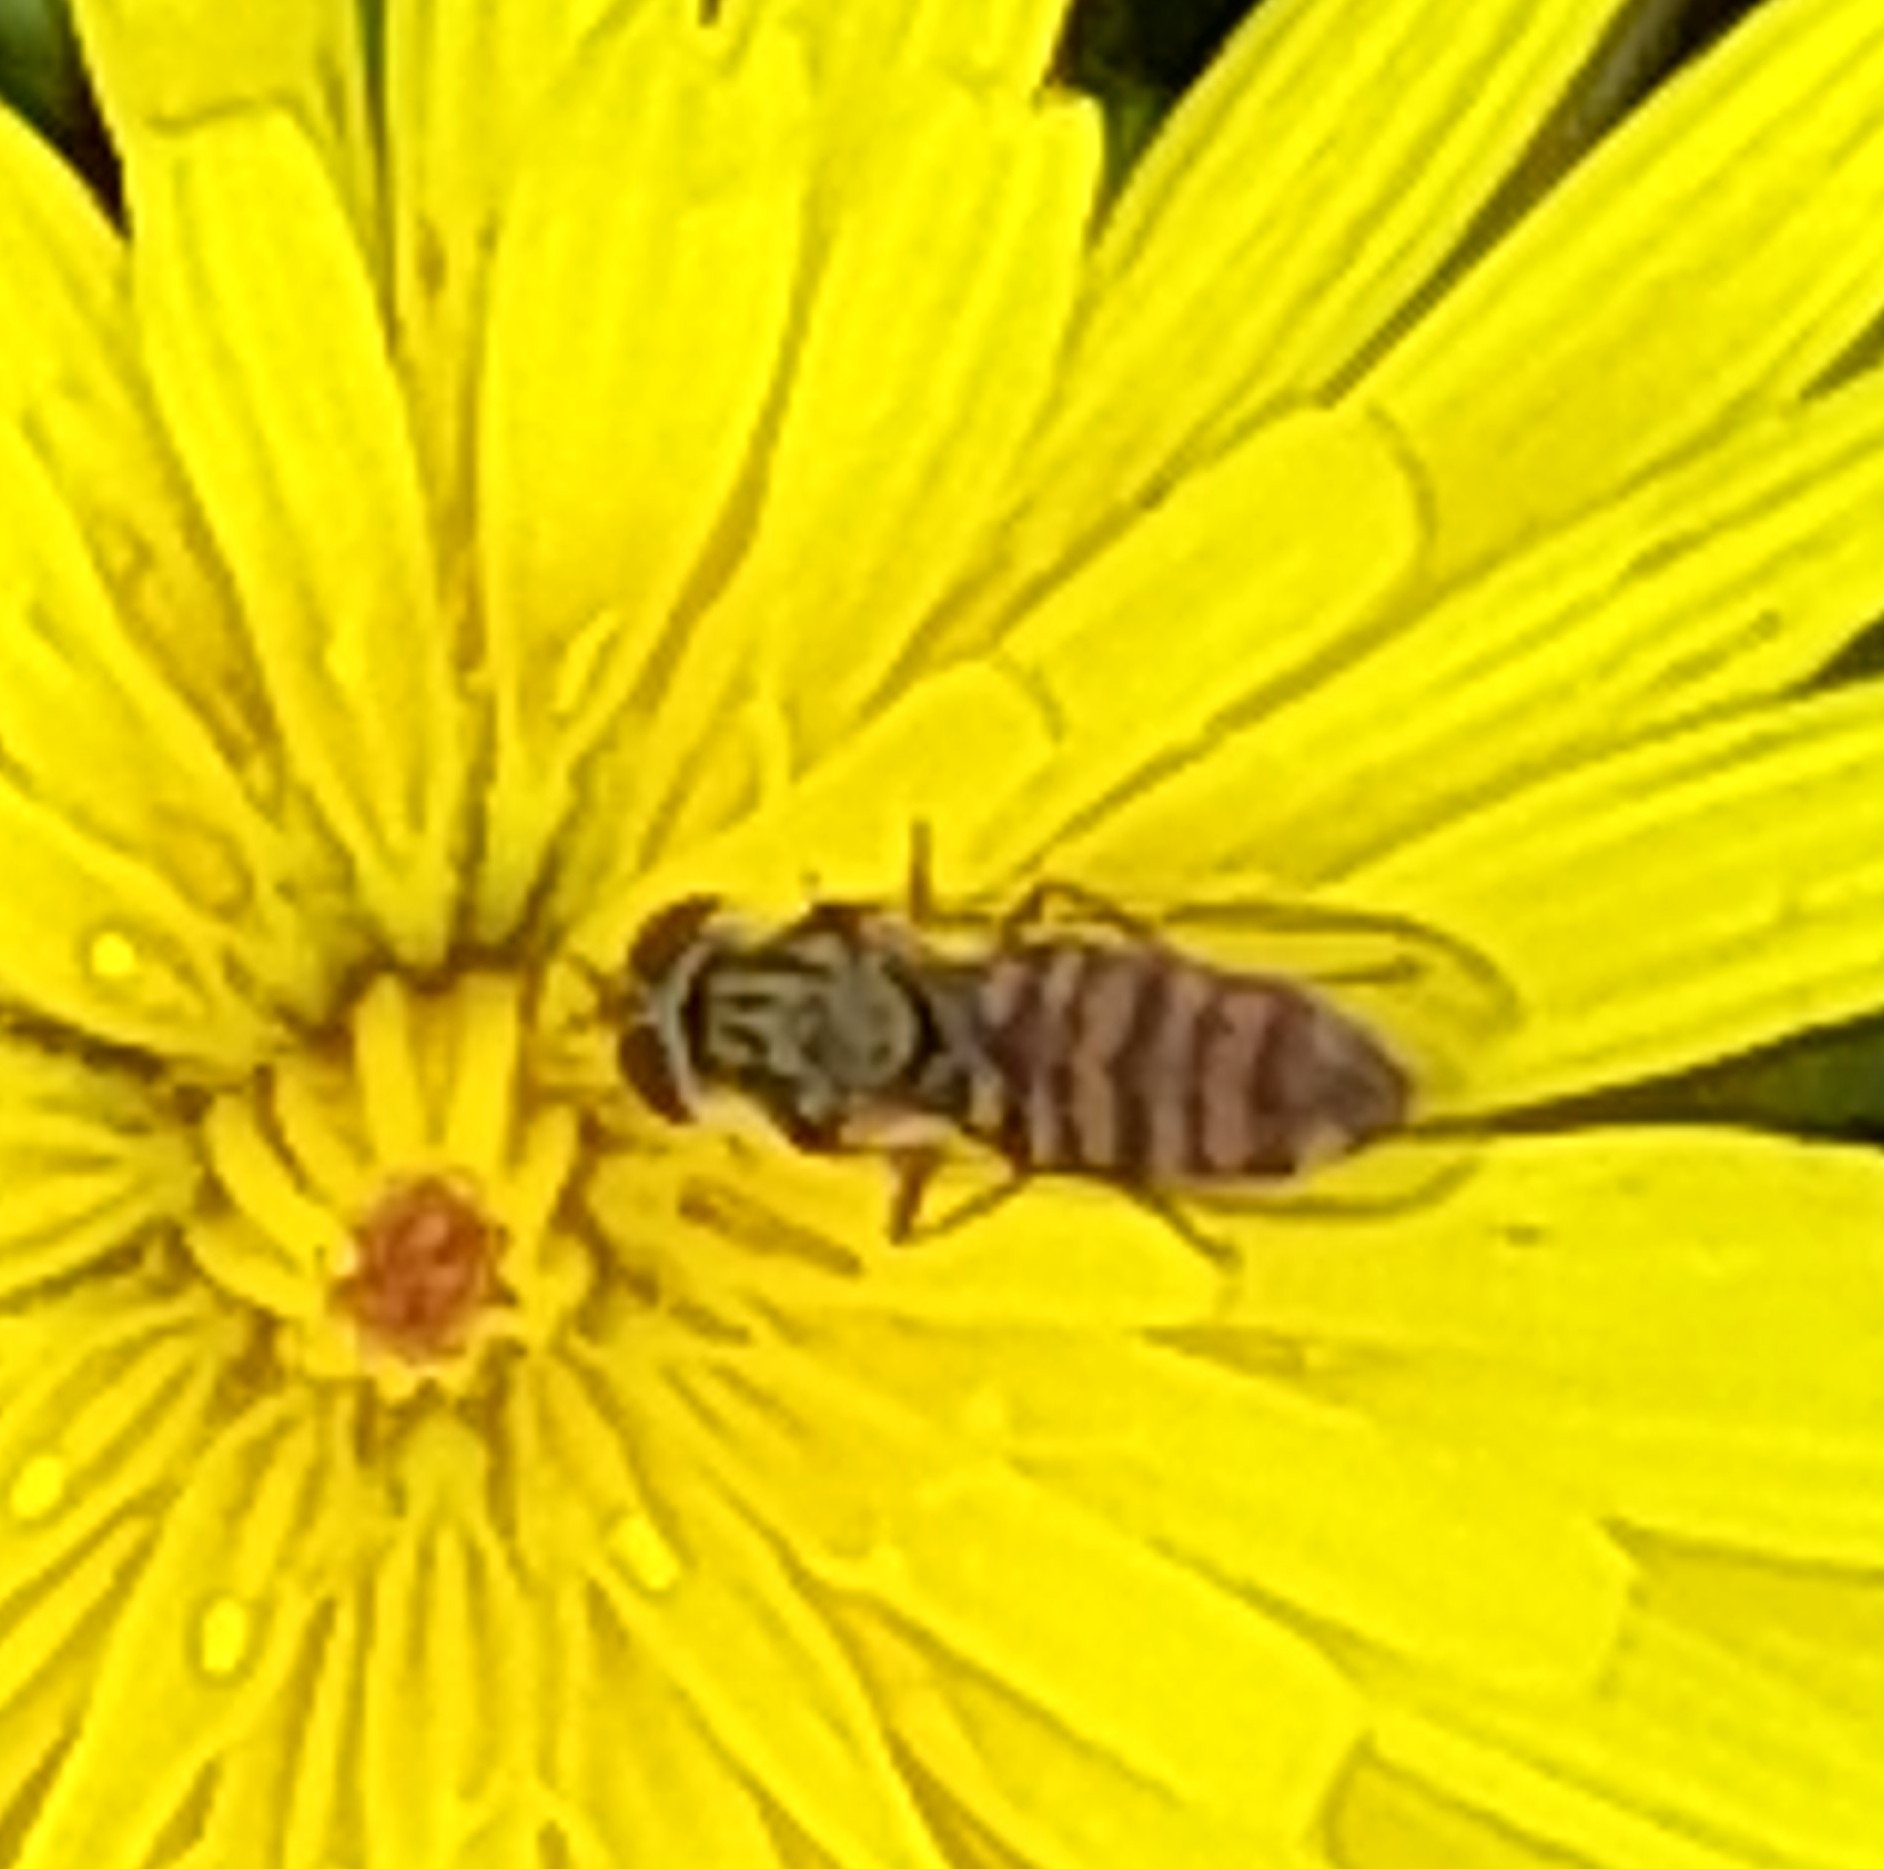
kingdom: Animalia
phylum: Arthropoda
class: Insecta
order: Diptera
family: Syrphidae
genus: Episyrphus
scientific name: Episyrphus balteatus
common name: Marmalade hoverfly
